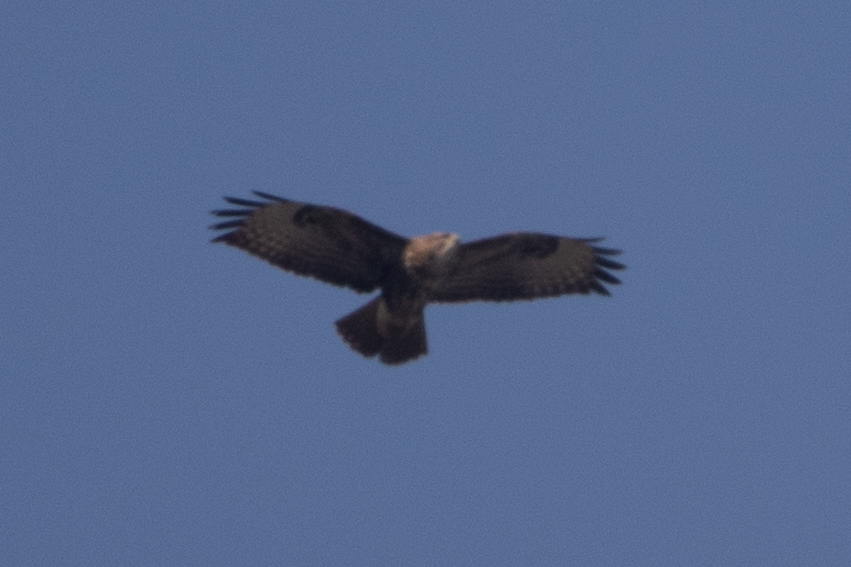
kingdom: Animalia
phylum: Chordata
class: Aves
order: Accipitriformes
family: Accipitridae
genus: Buteo
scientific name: Buteo buteo
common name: Common buzzard
